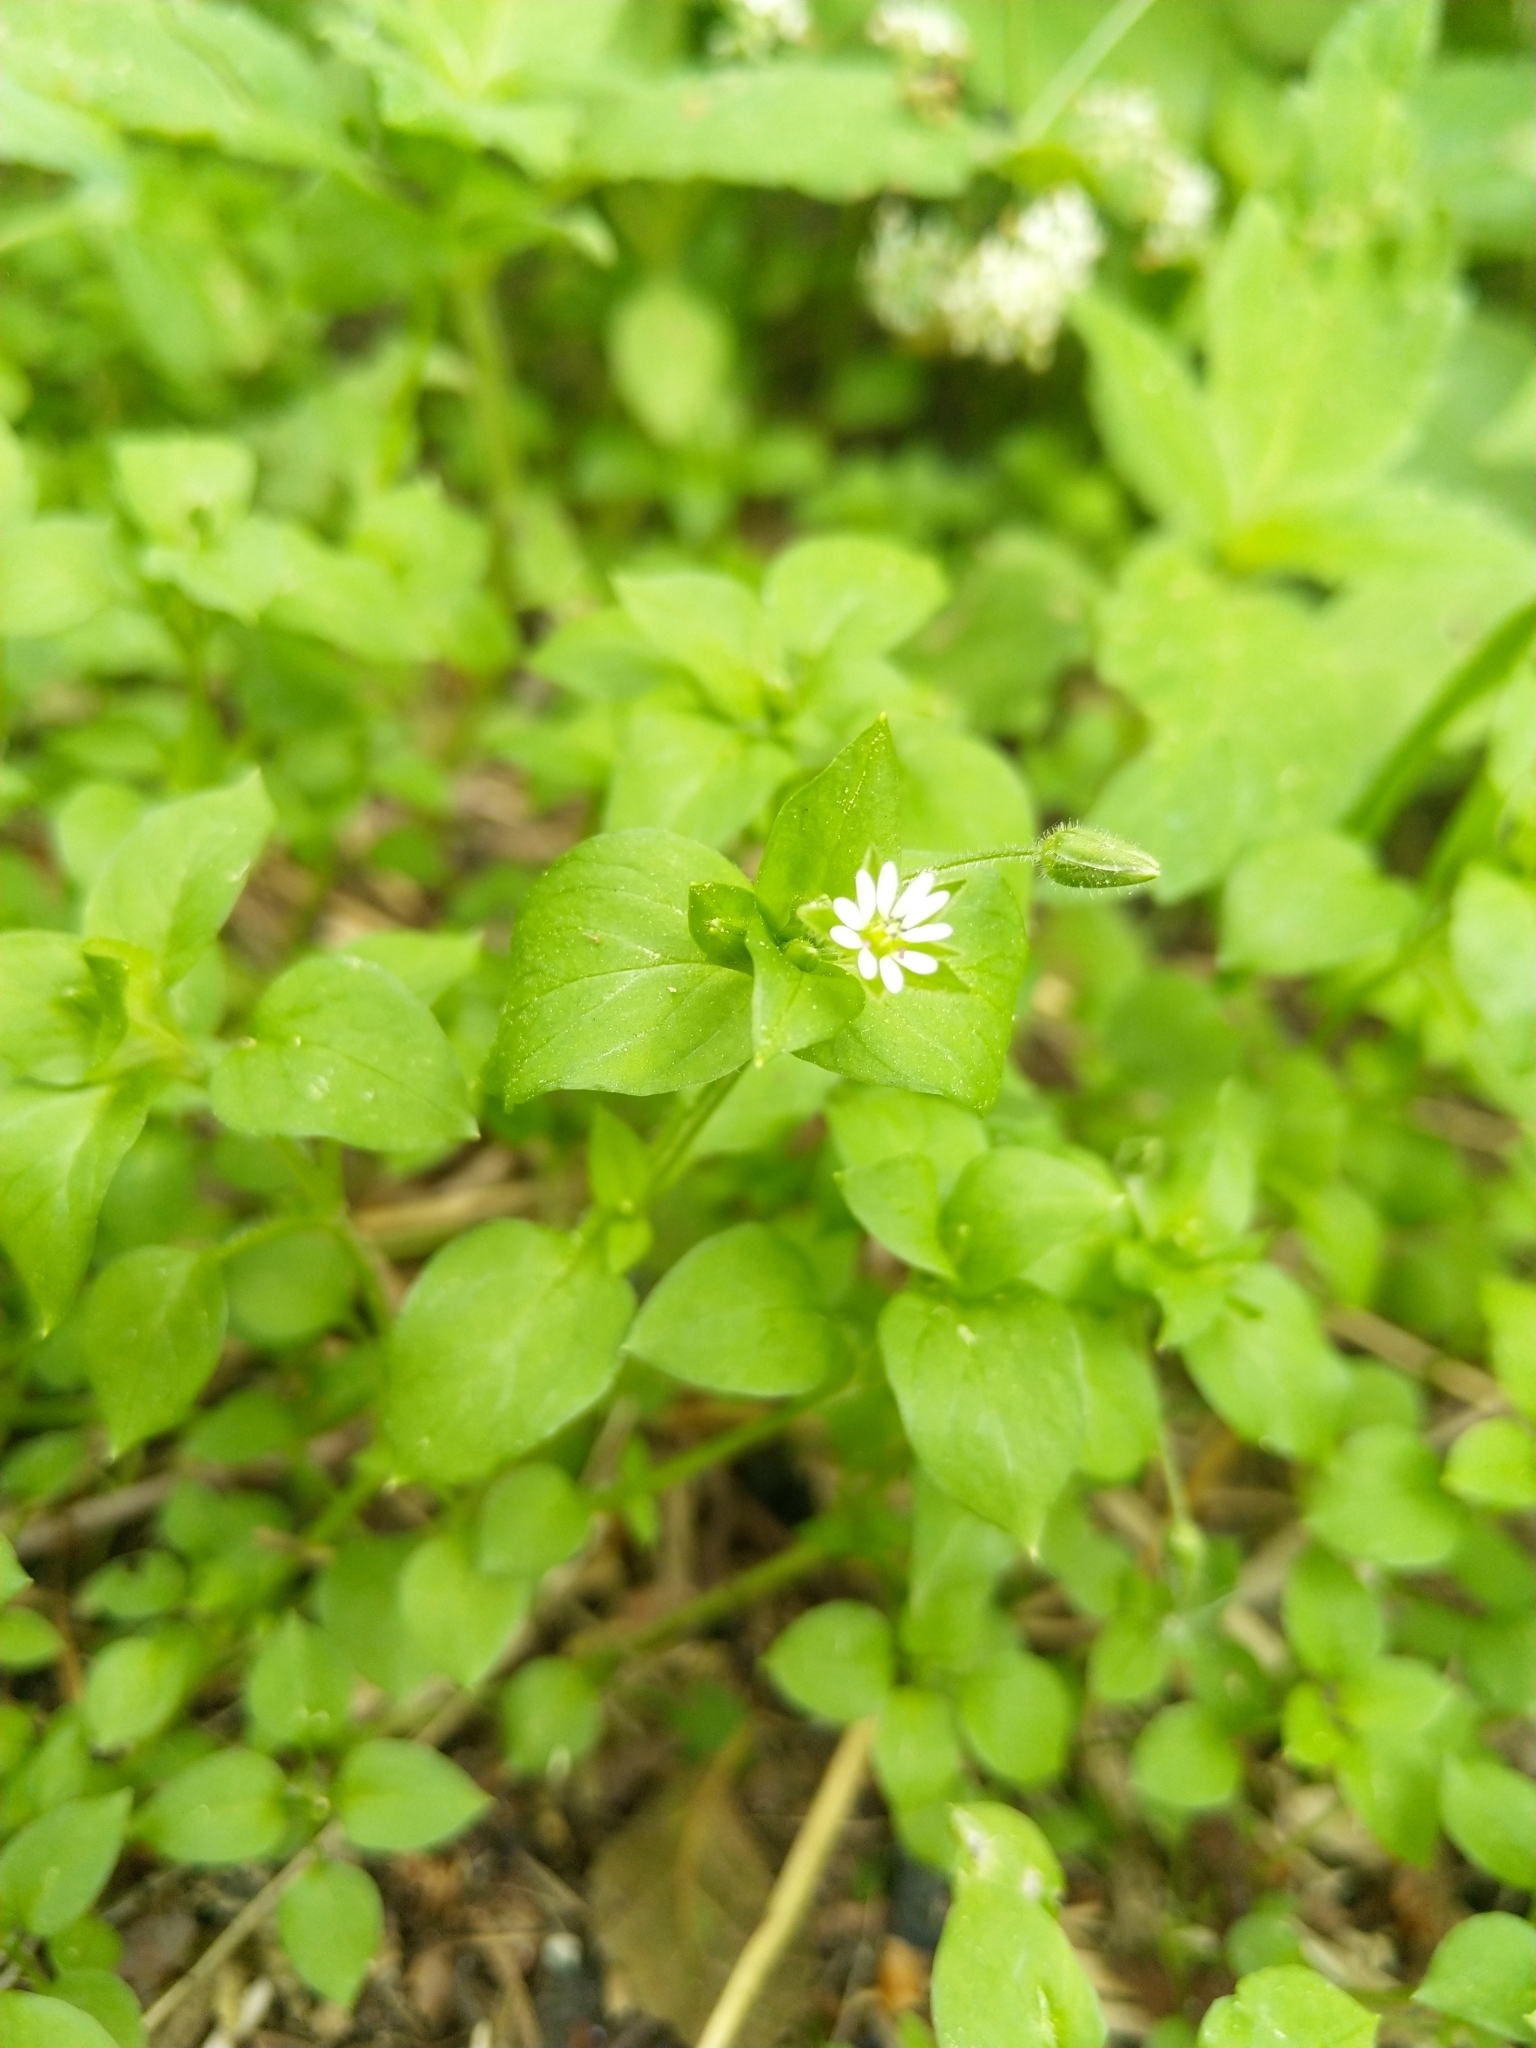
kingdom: Plantae
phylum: Tracheophyta
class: Magnoliopsida
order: Caryophyllales
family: Caryophyllaceae
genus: Stellaria
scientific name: Stellaria media
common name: Common chickweed
